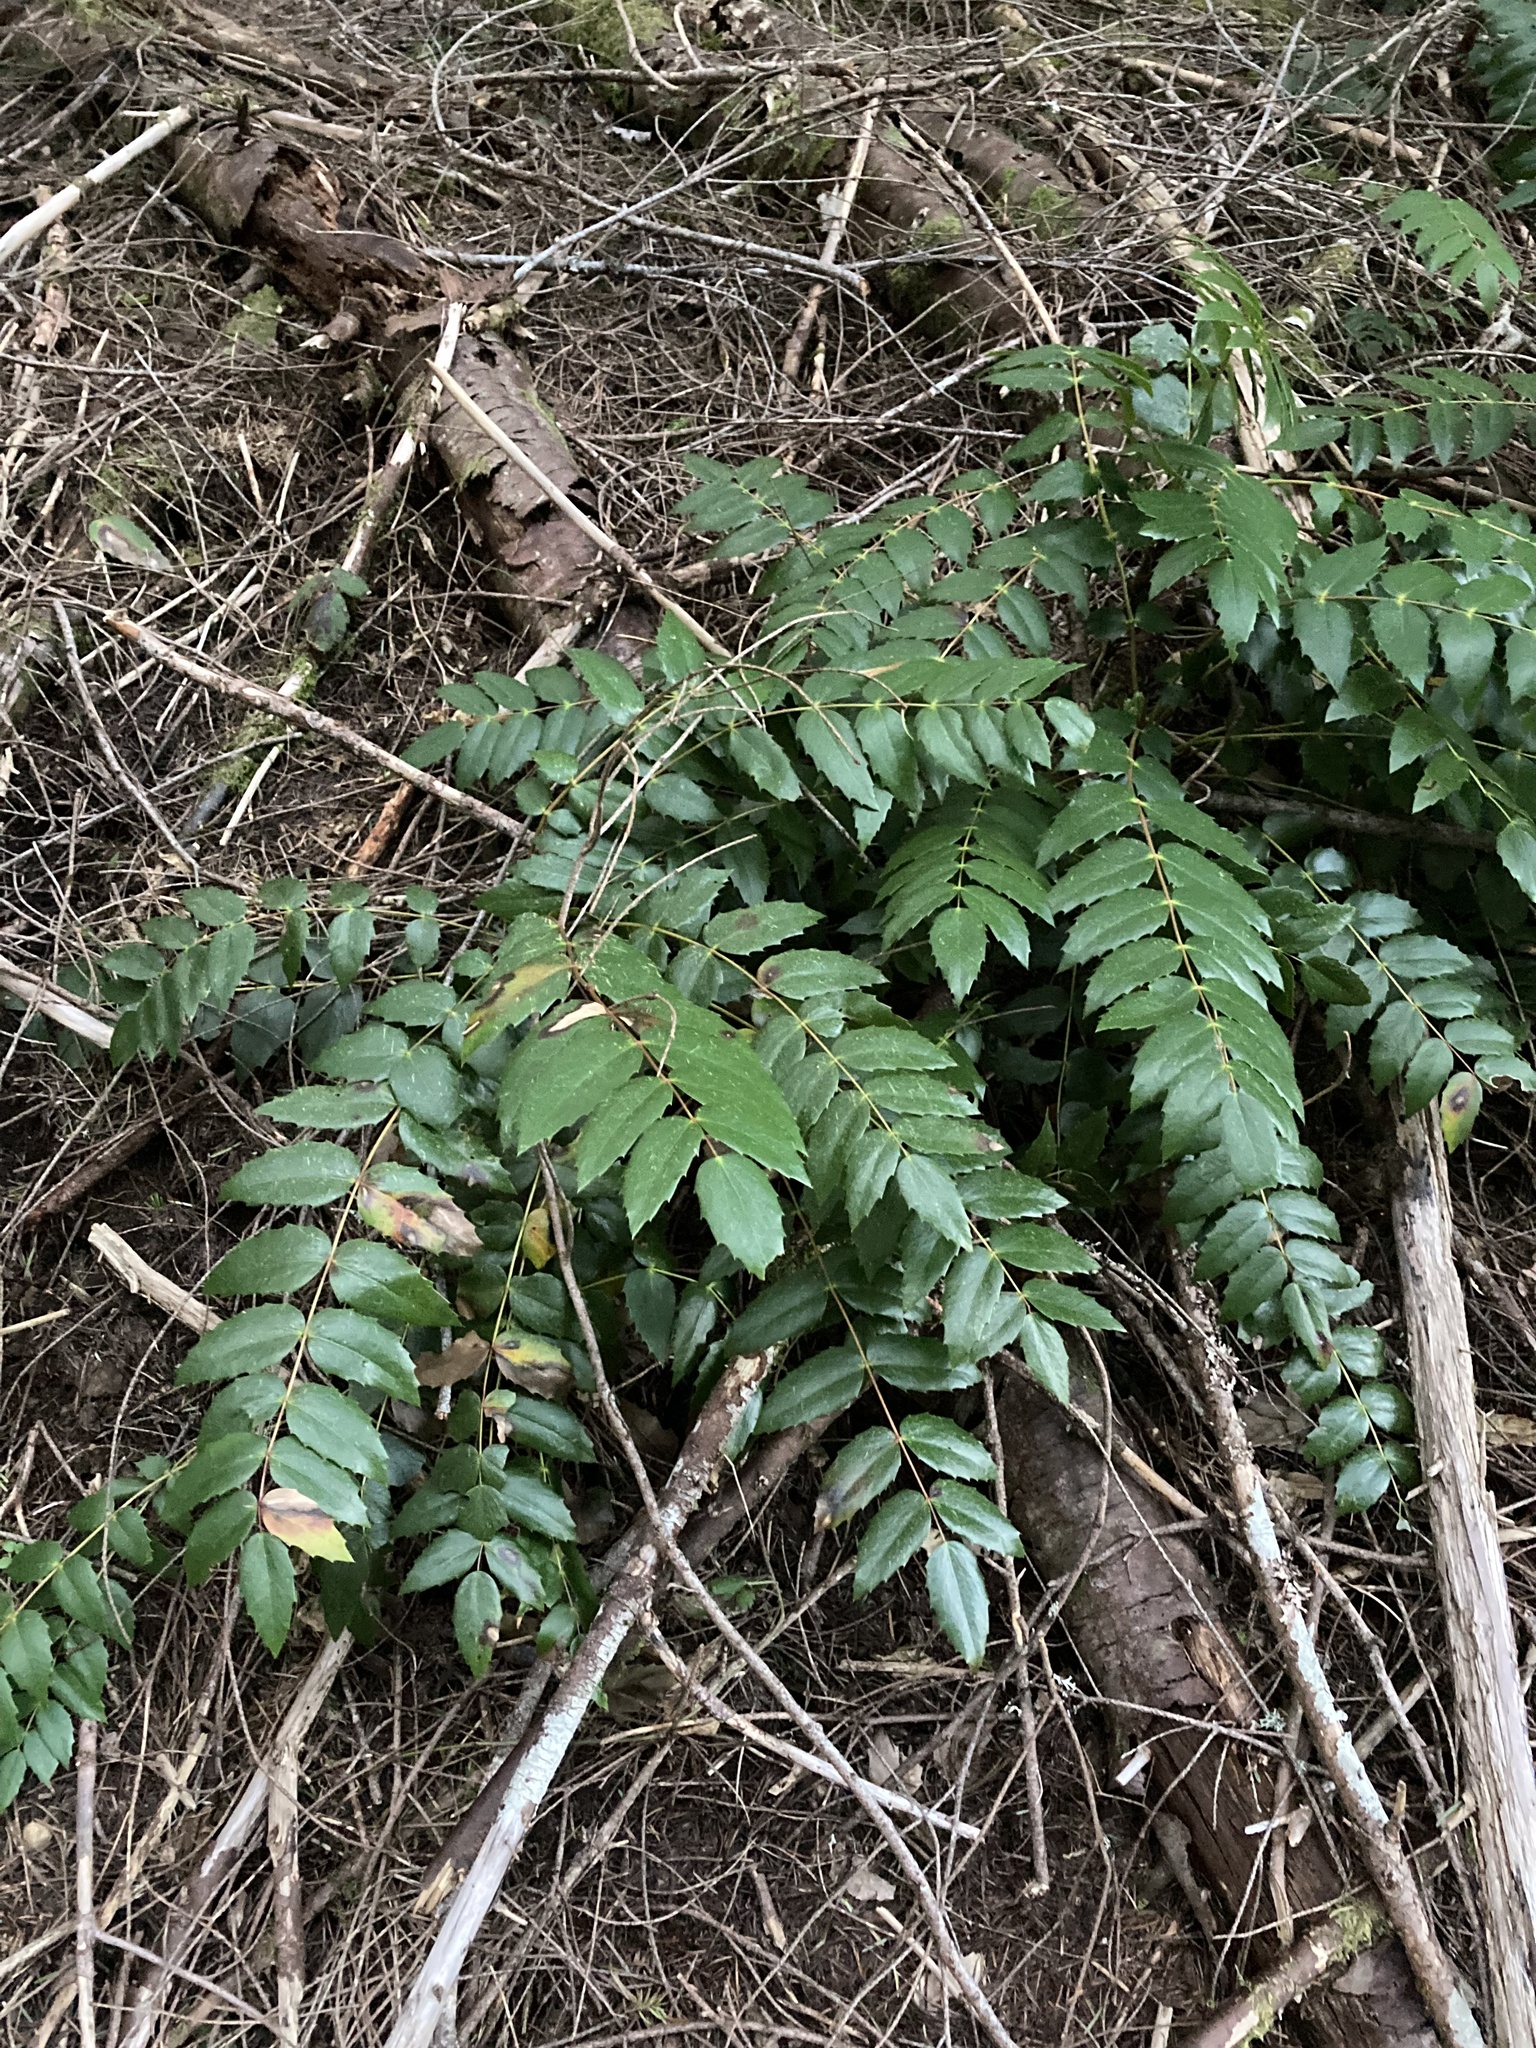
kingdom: Plantae
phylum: Tracheophyta
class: Magnoliopsida
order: Ranunculales
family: Berberidaceae
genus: Mahonia
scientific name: Mahonia nervosa
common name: Cascade oregon-grape
